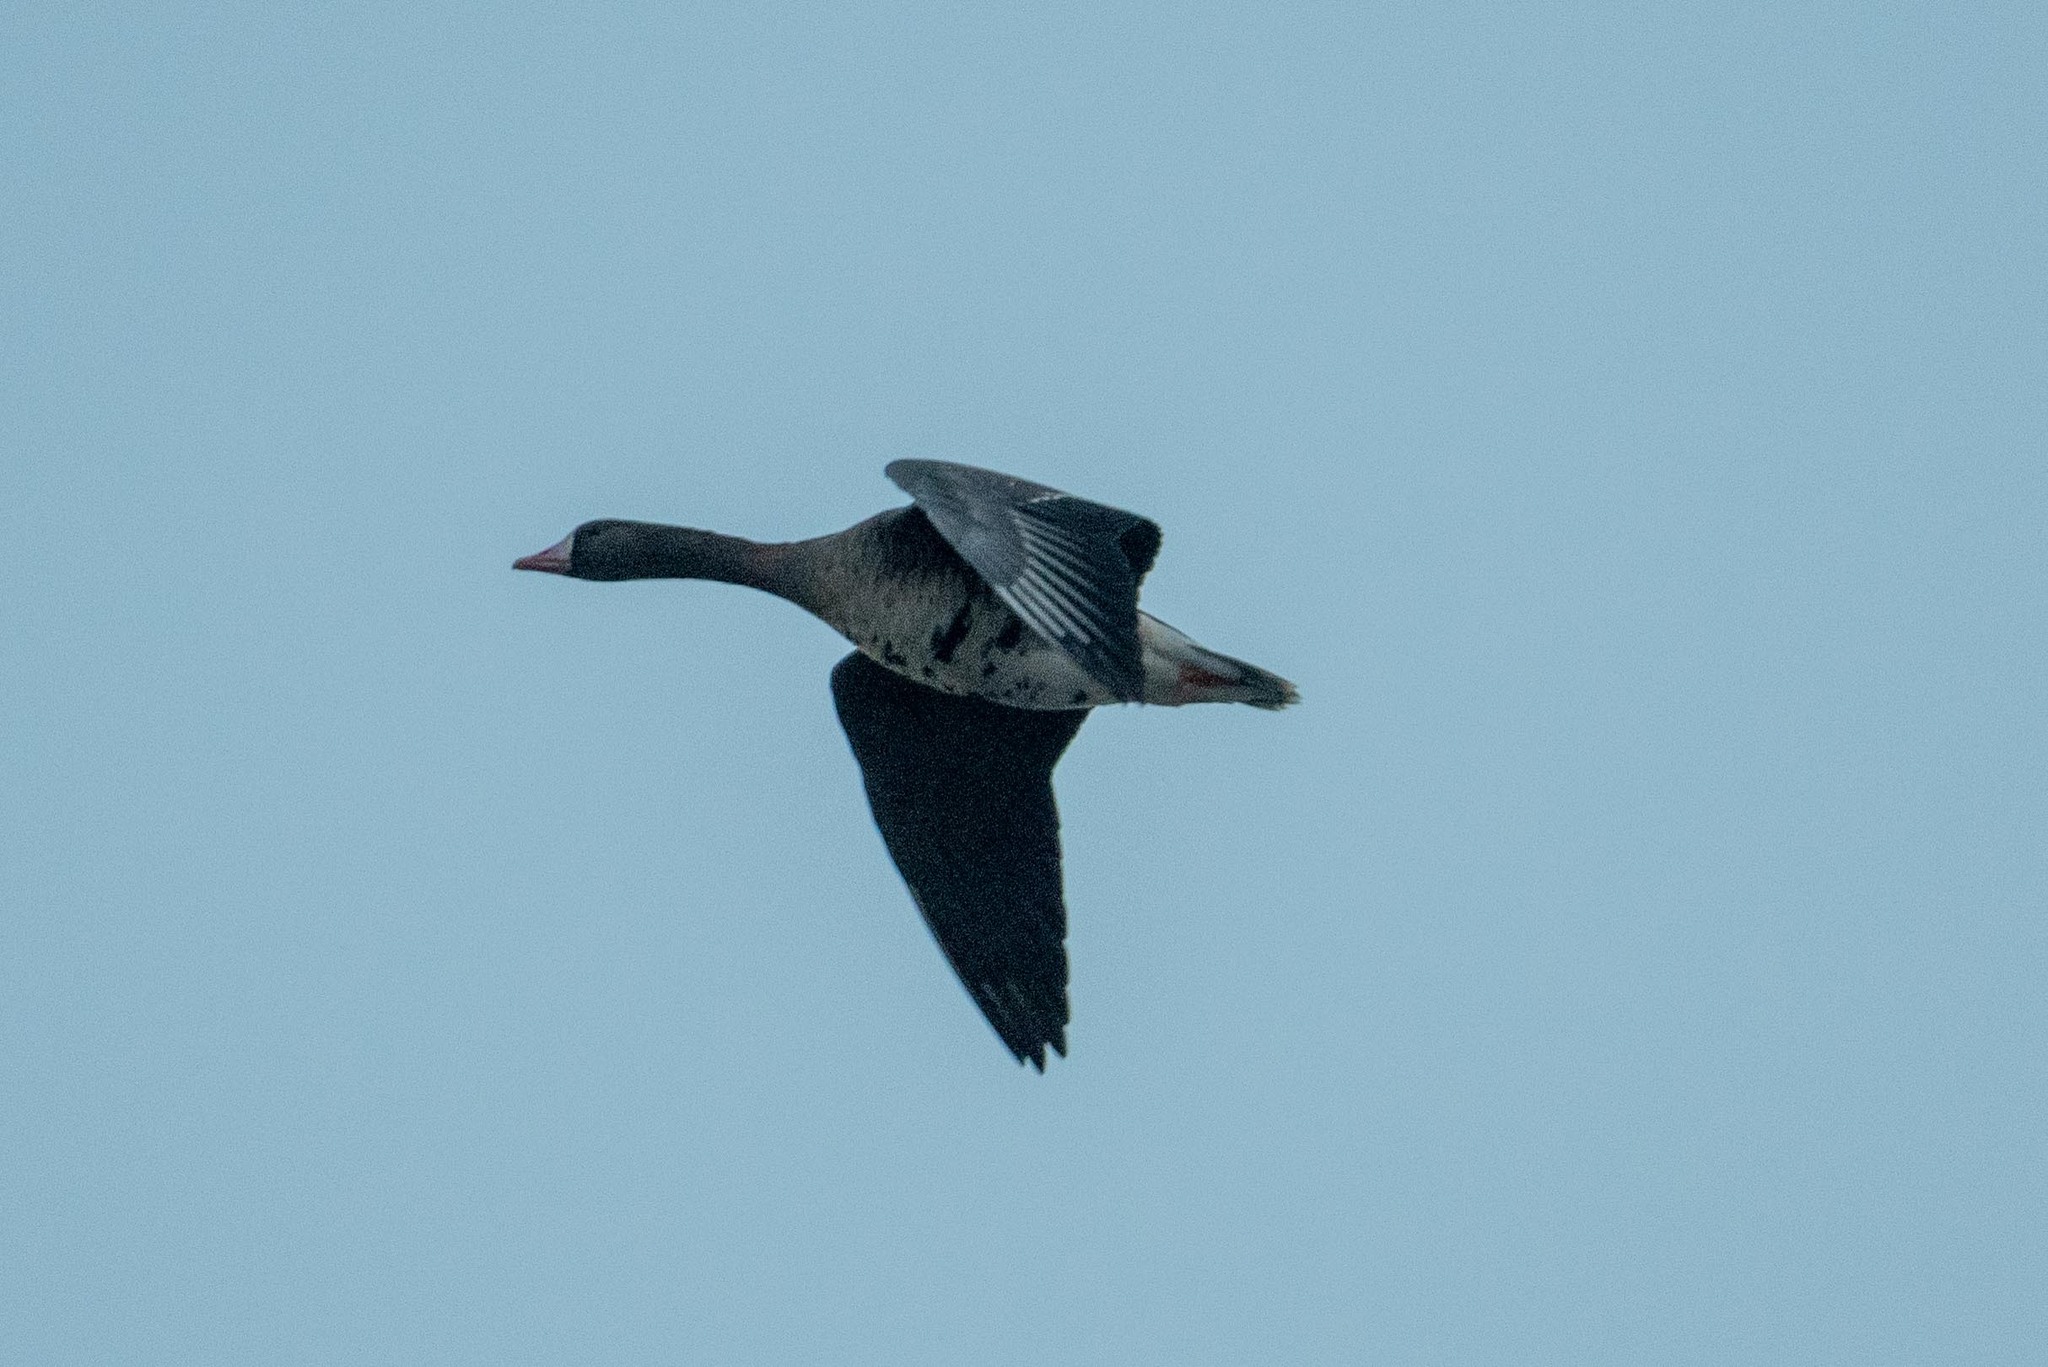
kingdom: Animalia
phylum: Chordata
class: Aves
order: Anseriformes
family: Anatidae
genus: Anser
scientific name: Anser albifrons
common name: Greater white-fronted goose
